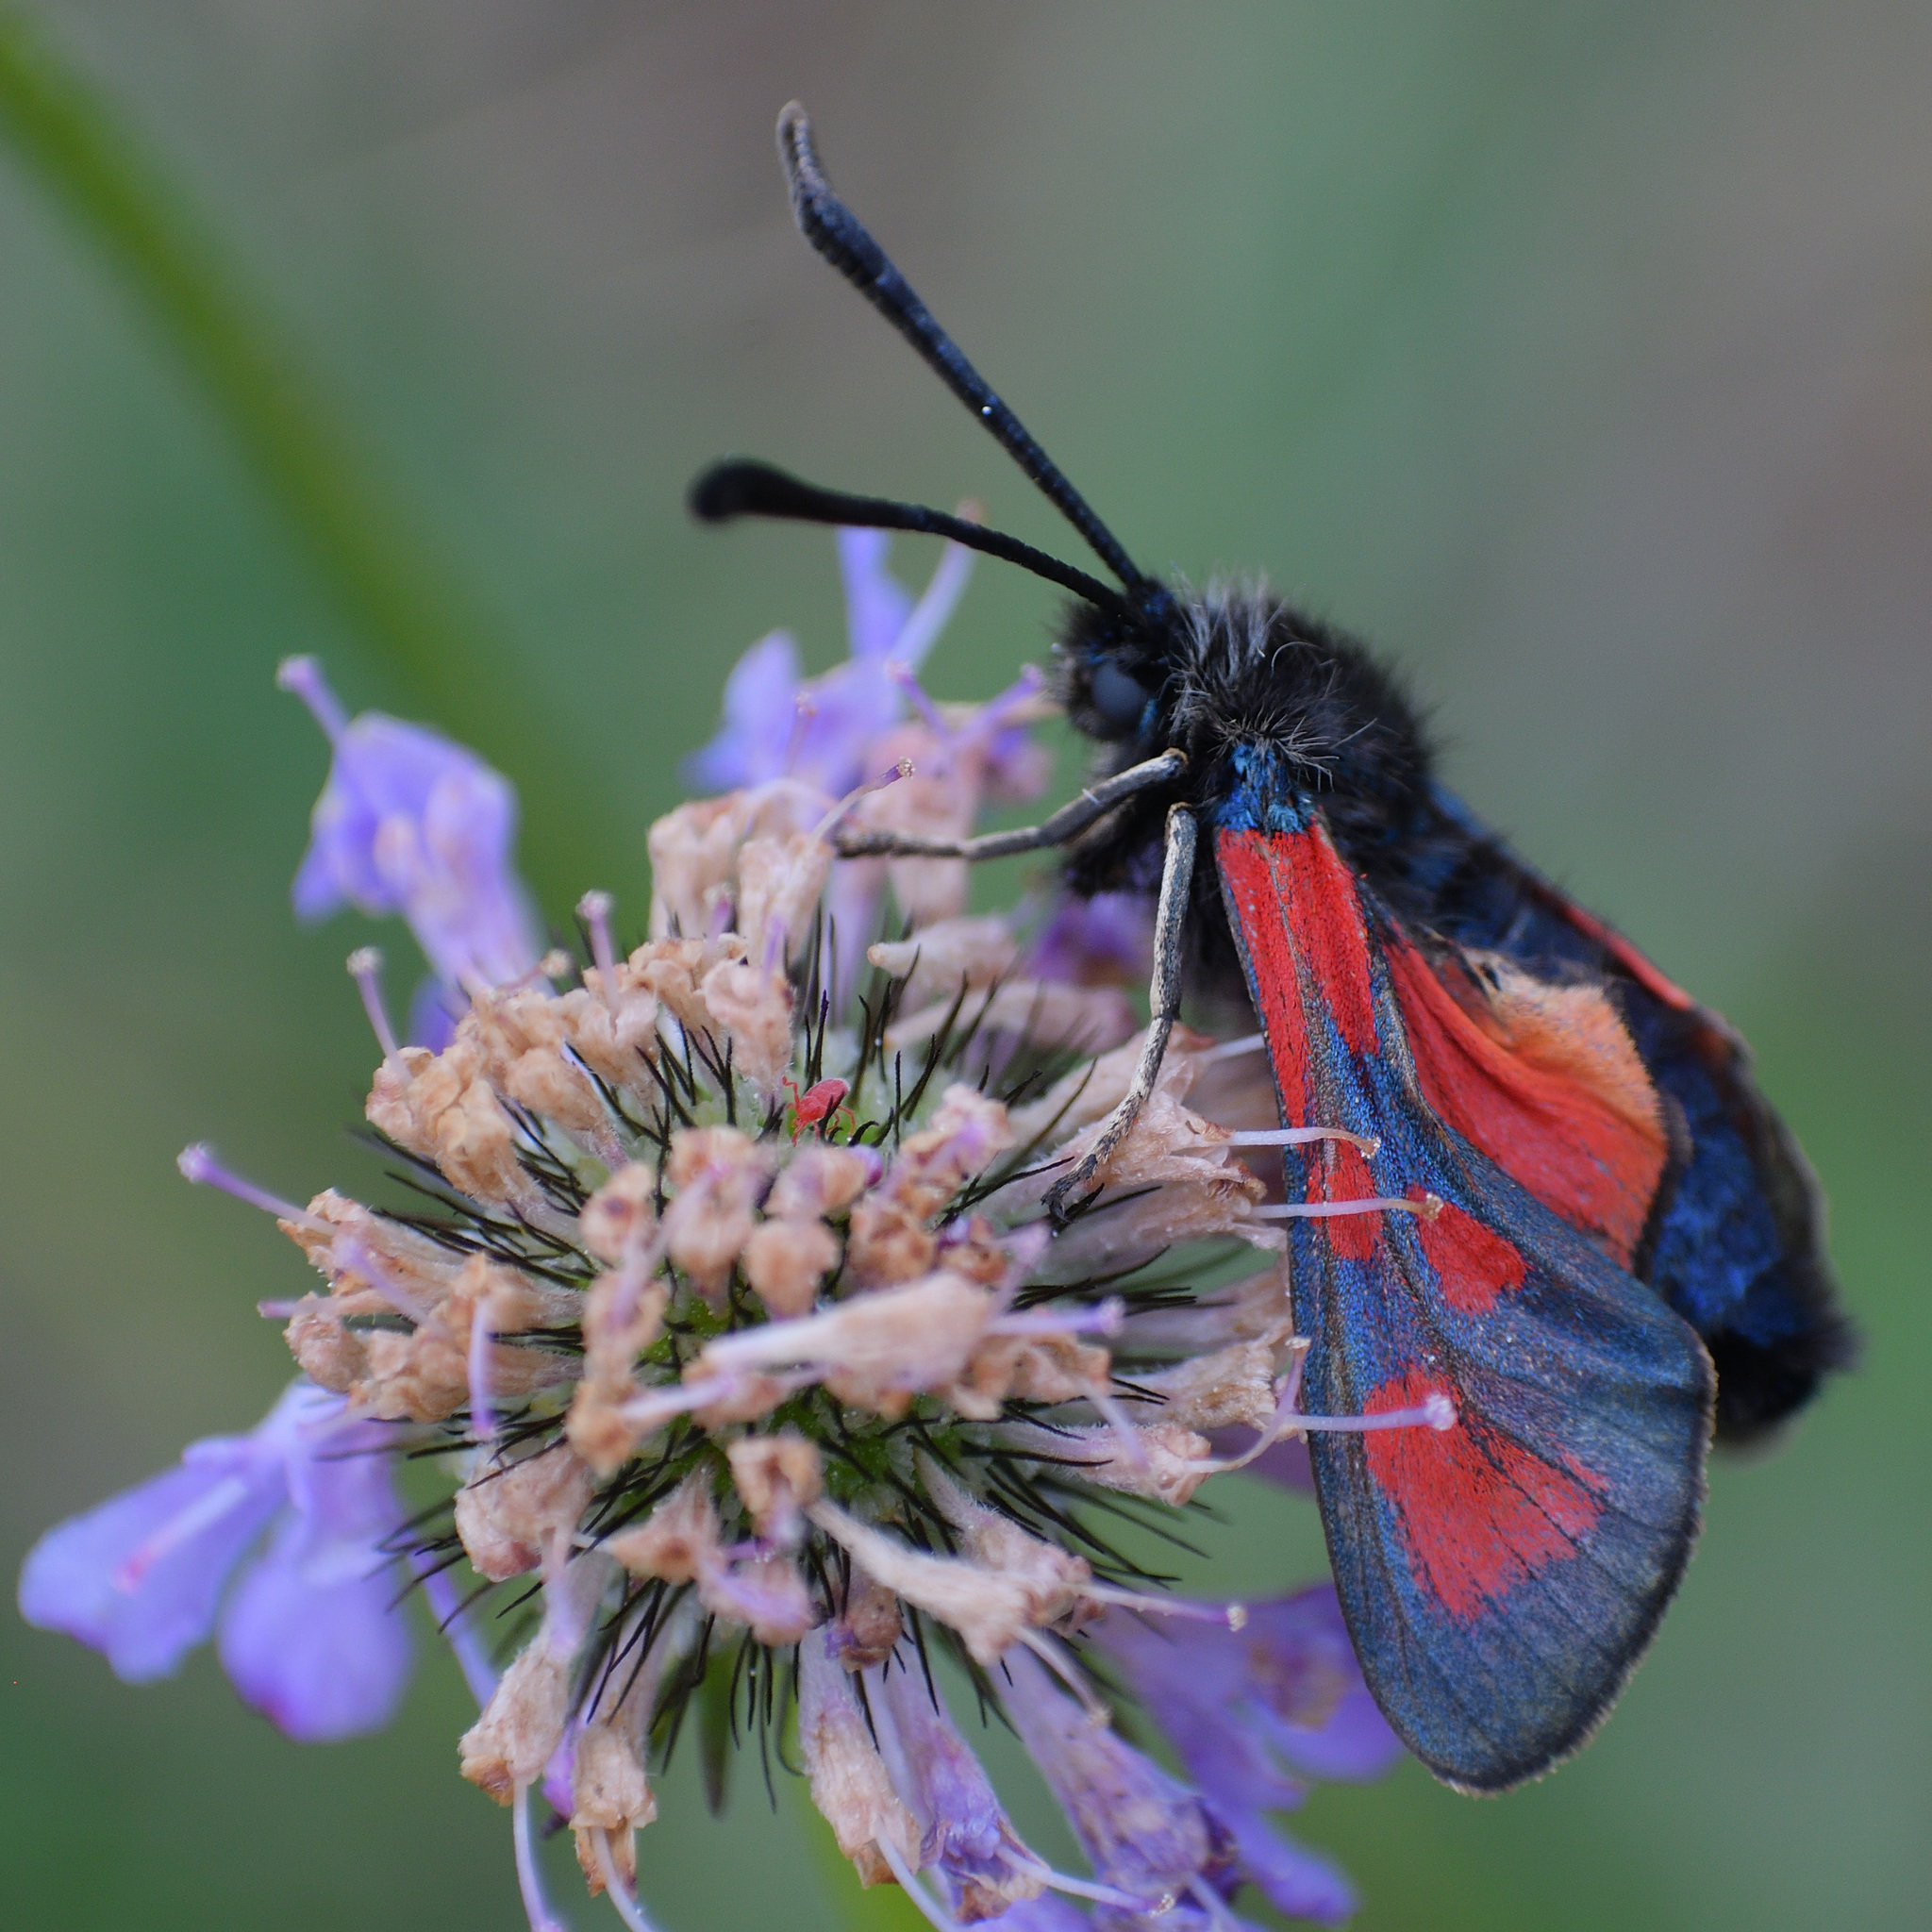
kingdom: Animalia
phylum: Arthropoda
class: Insecta
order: Lepidoptera
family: Zygaenidae
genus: Zygaena
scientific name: Zygaena loti
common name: Slender scotch burnet
